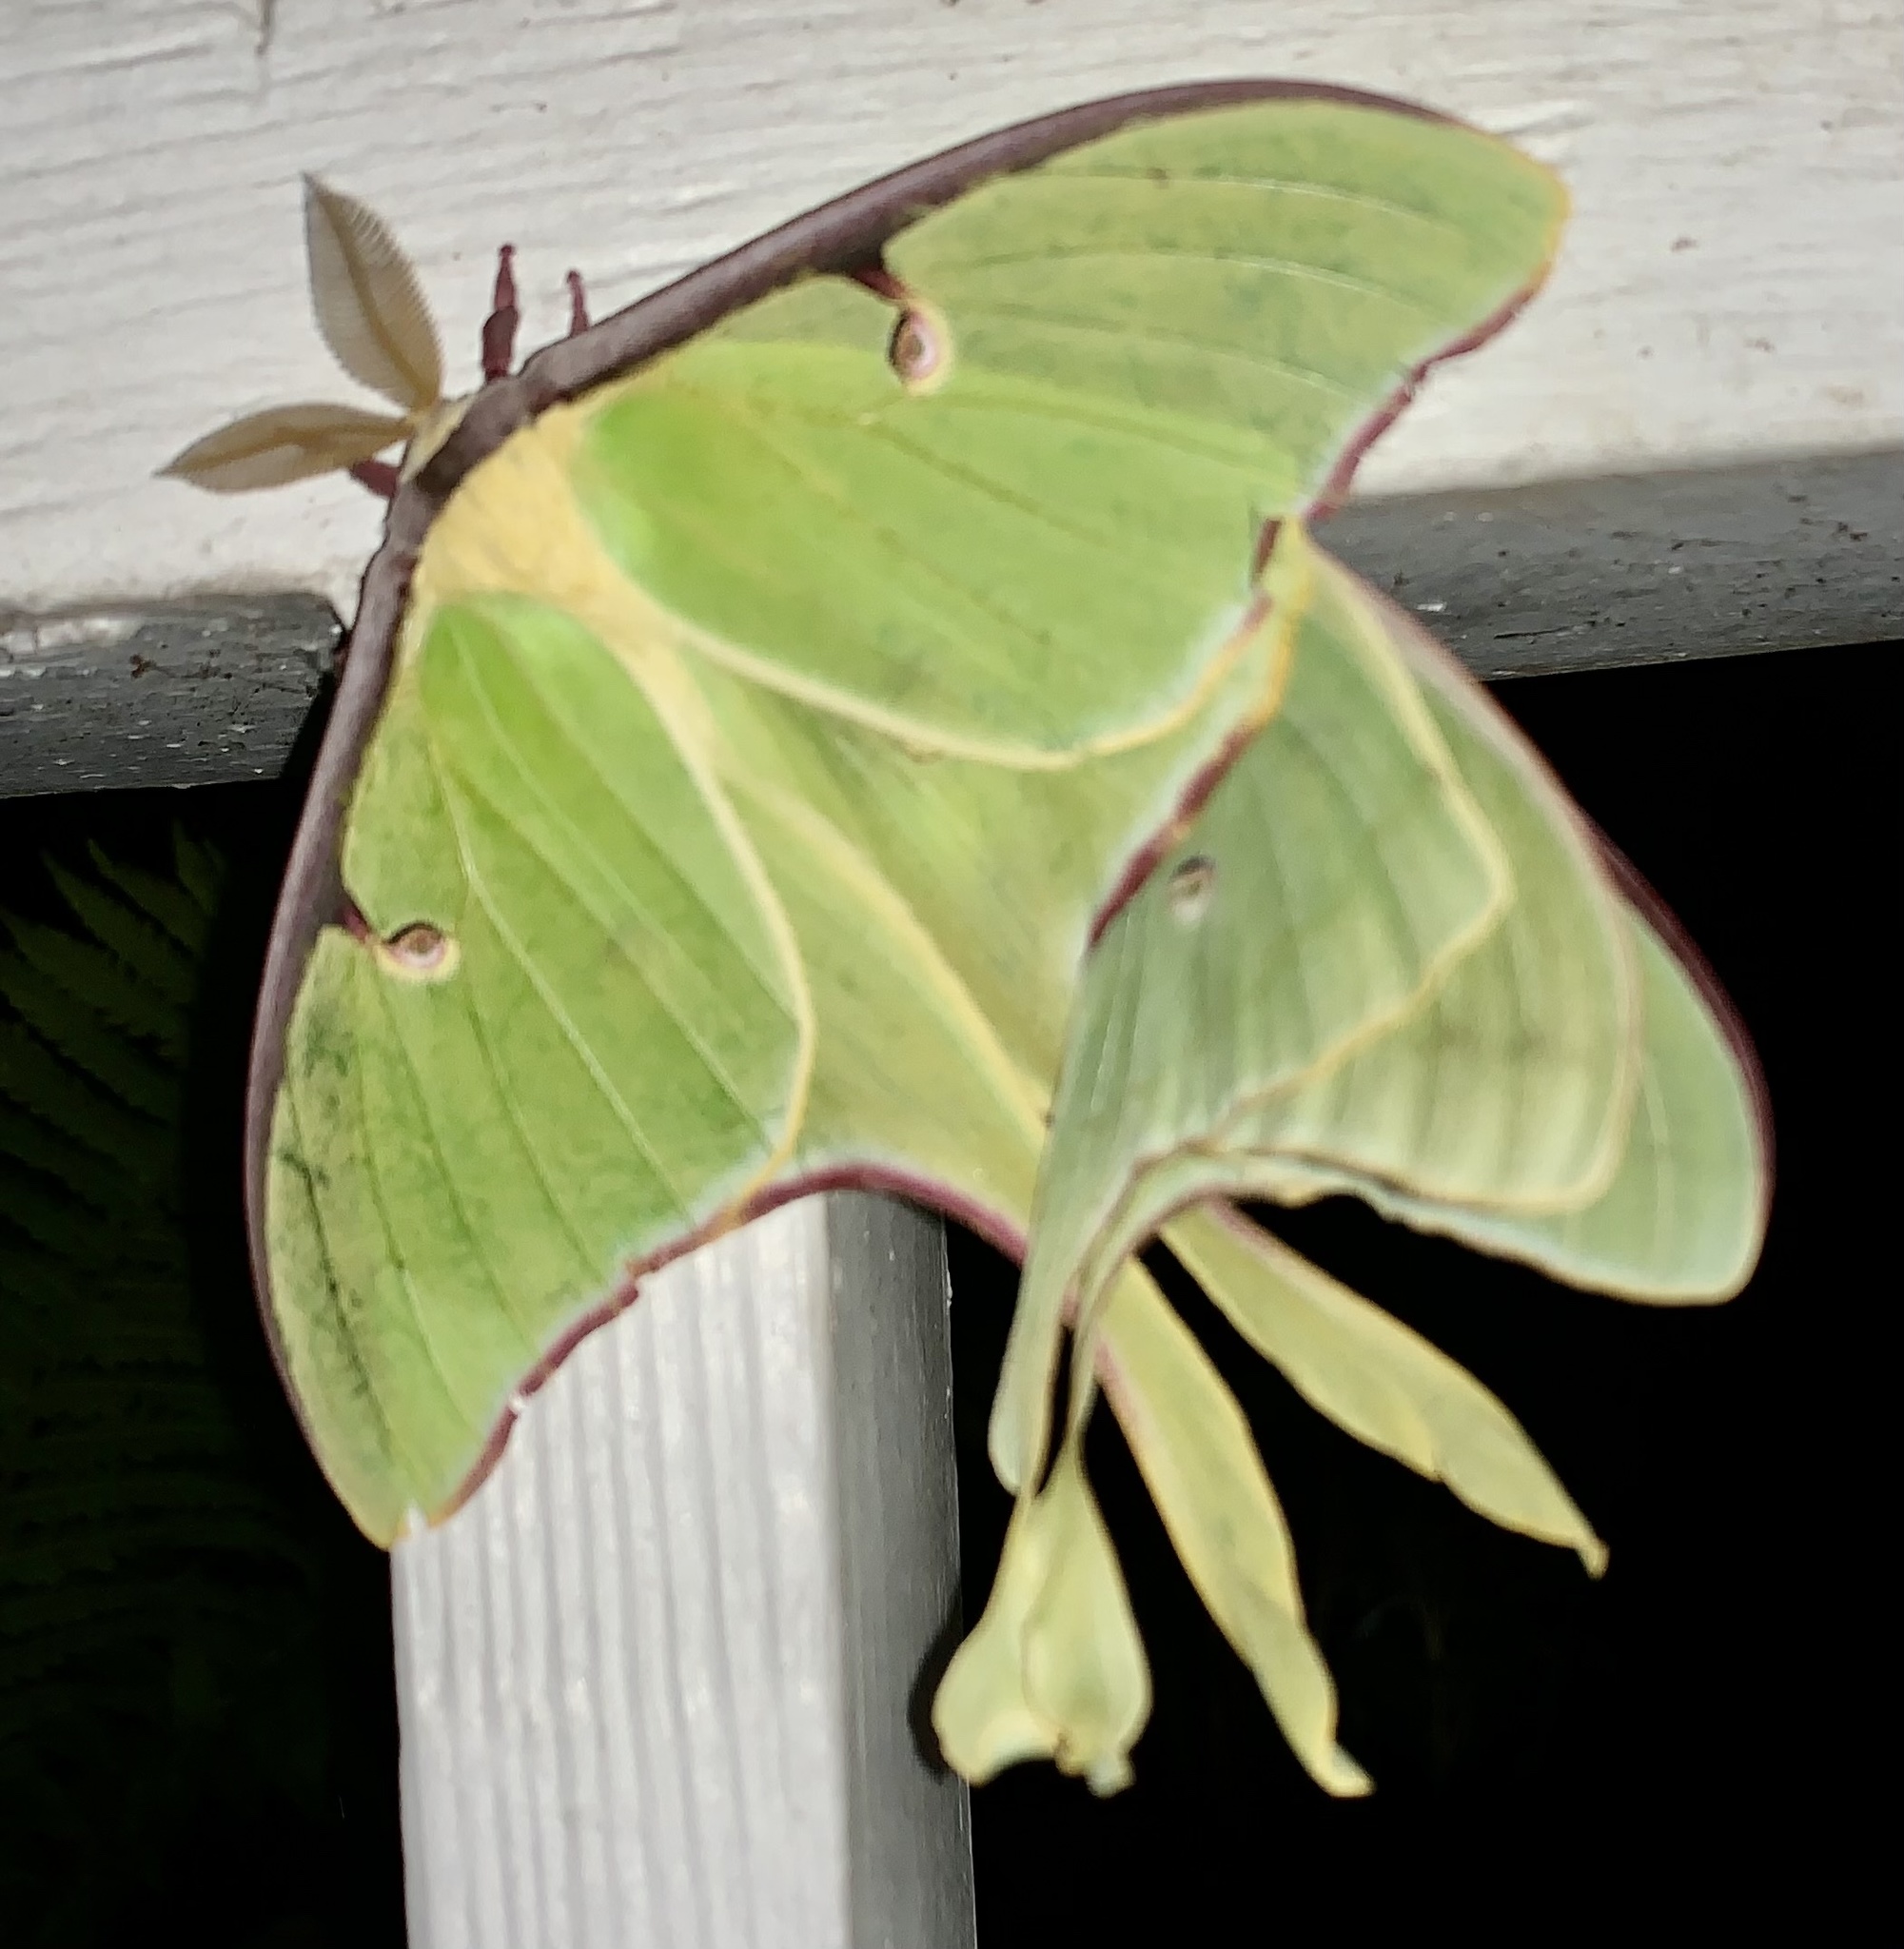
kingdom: Animalia
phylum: Arthropoda
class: Insecta
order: Lepidoptera
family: Saturniidae
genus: Actias
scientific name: Actias luna
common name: Luna moth
